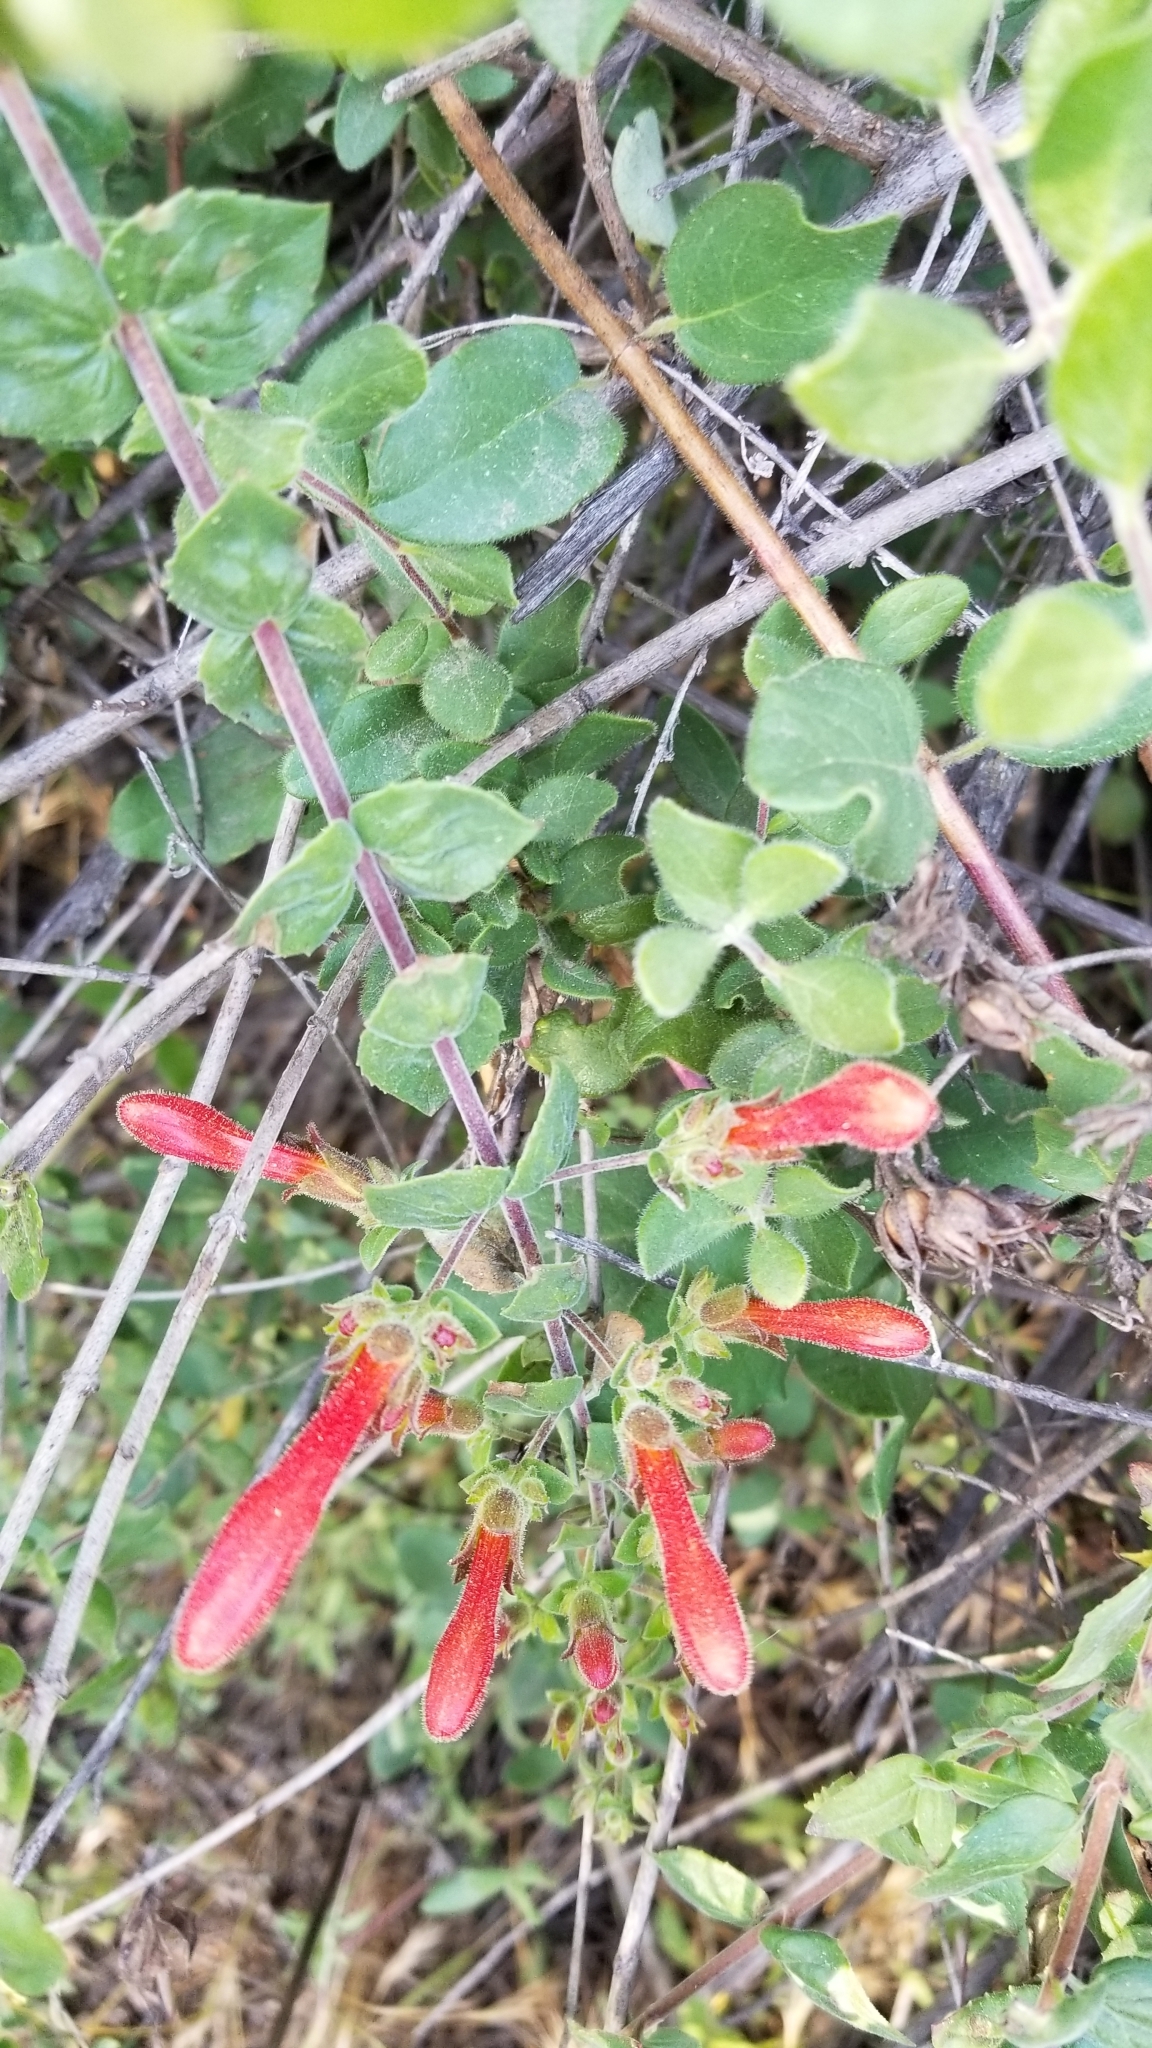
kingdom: Plantae
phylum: Tracheophyta
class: Magnoliopsida
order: Lamiales
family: Plantaginaceae
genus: Keckiella
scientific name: Keckiella cordifolia
